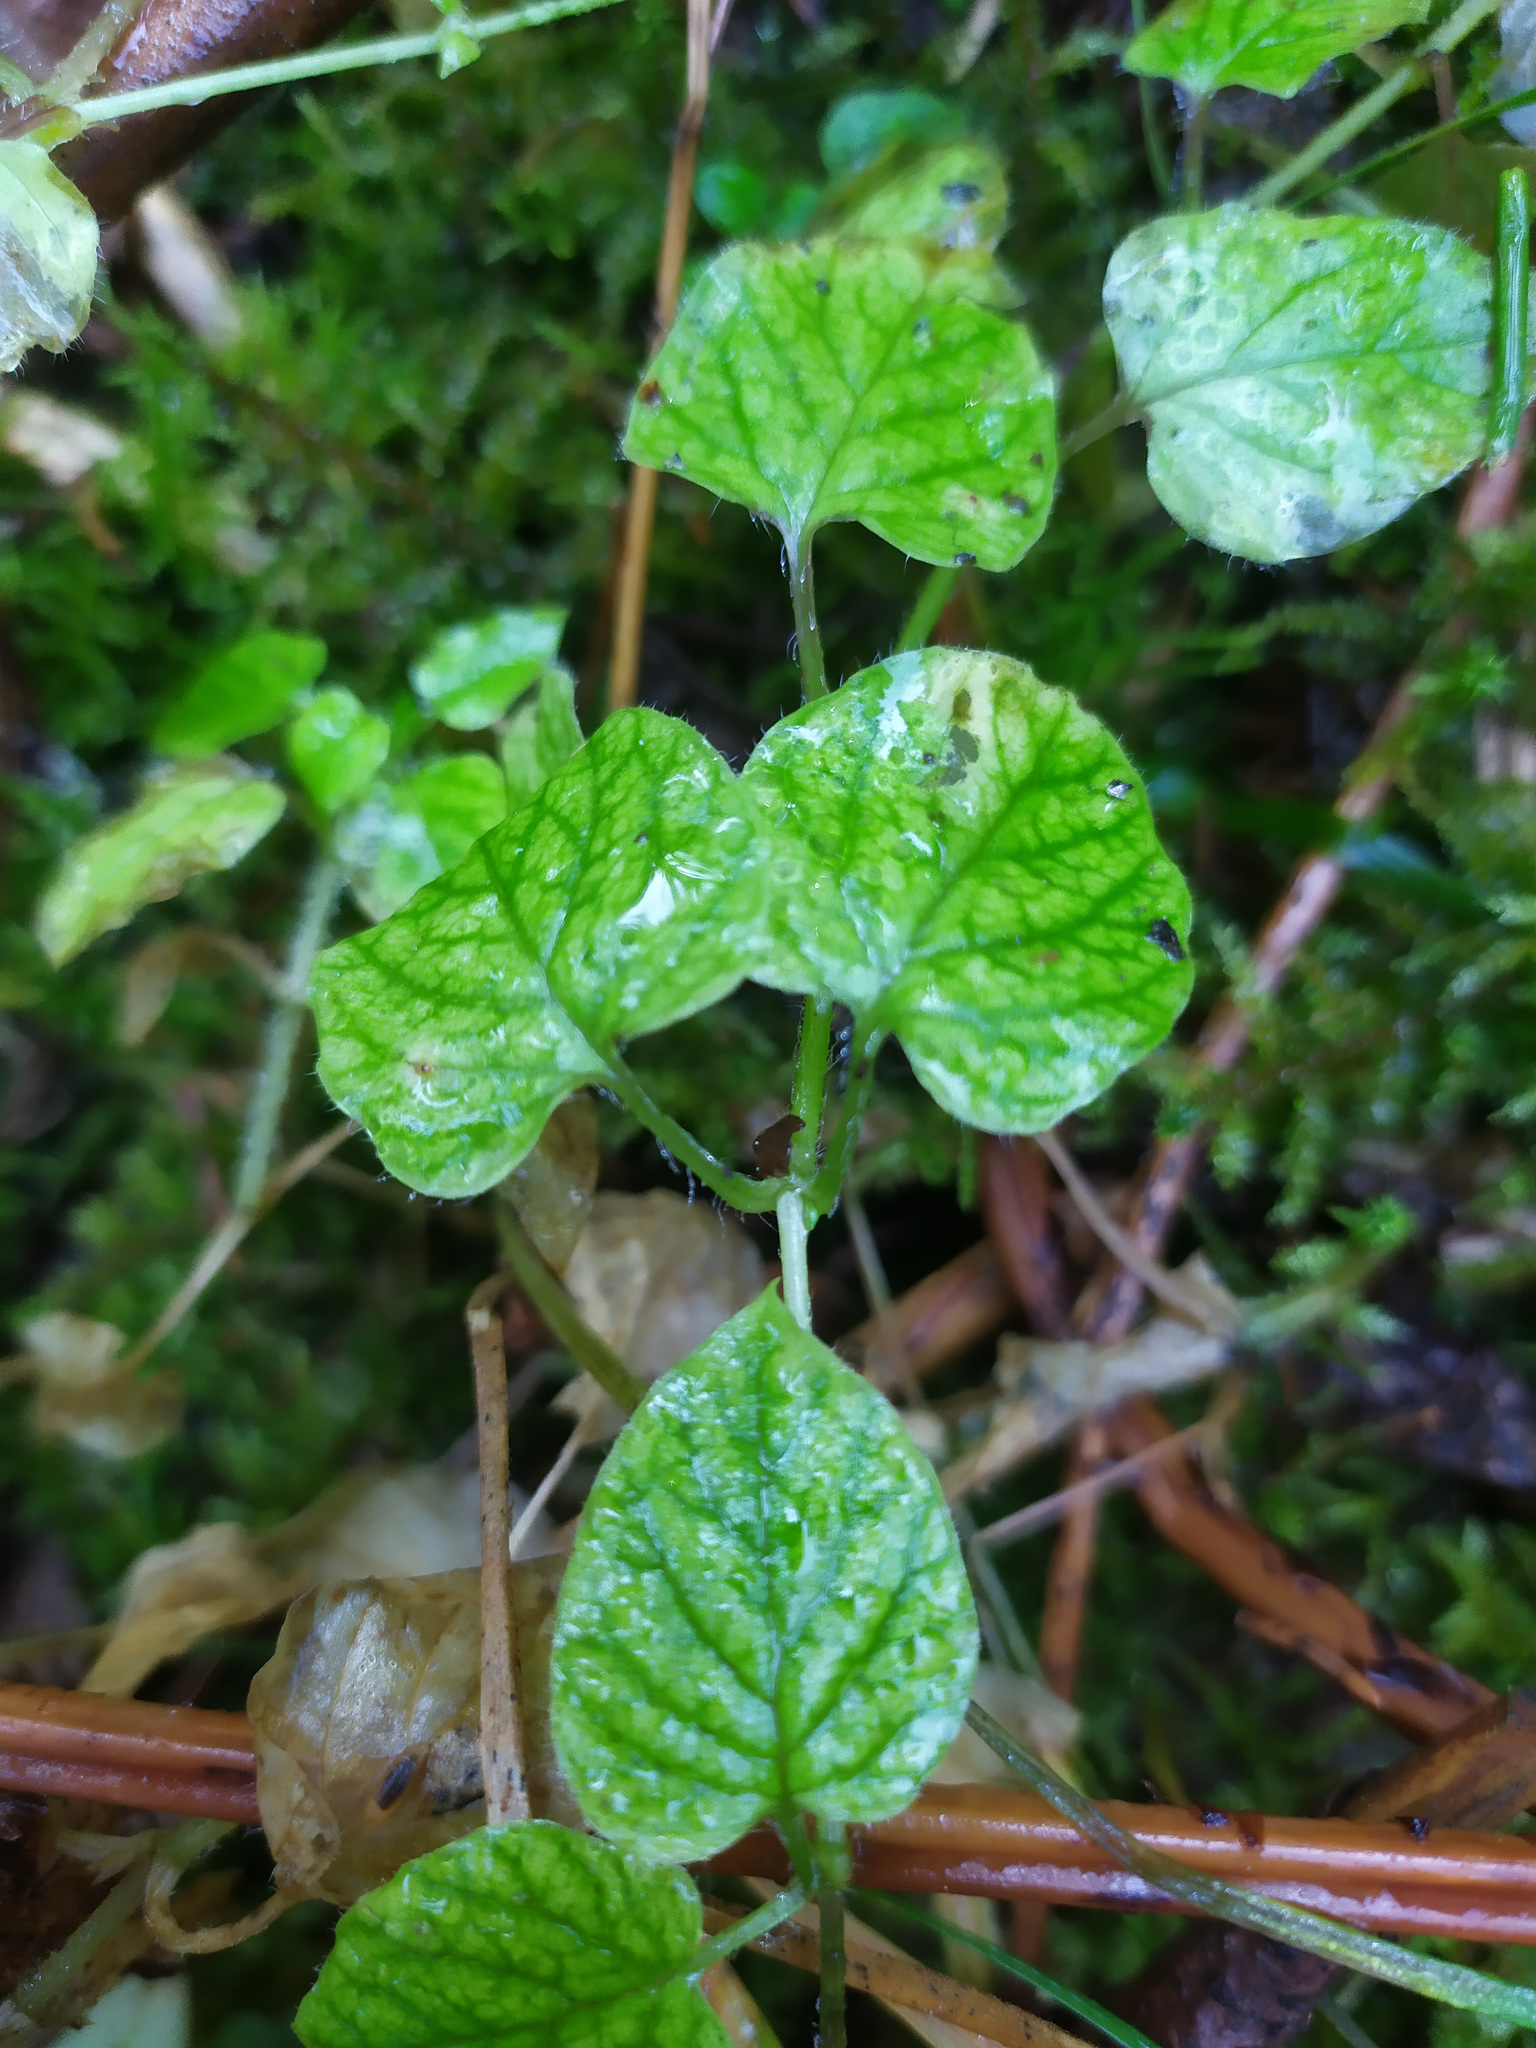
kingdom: Plantae
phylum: Tracheophyta
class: Magnoliopsida
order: Caryophyllales
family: Caryophyllaceae
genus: Stellaria
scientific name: Stellaria nemorum
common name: Wood stitchwort
